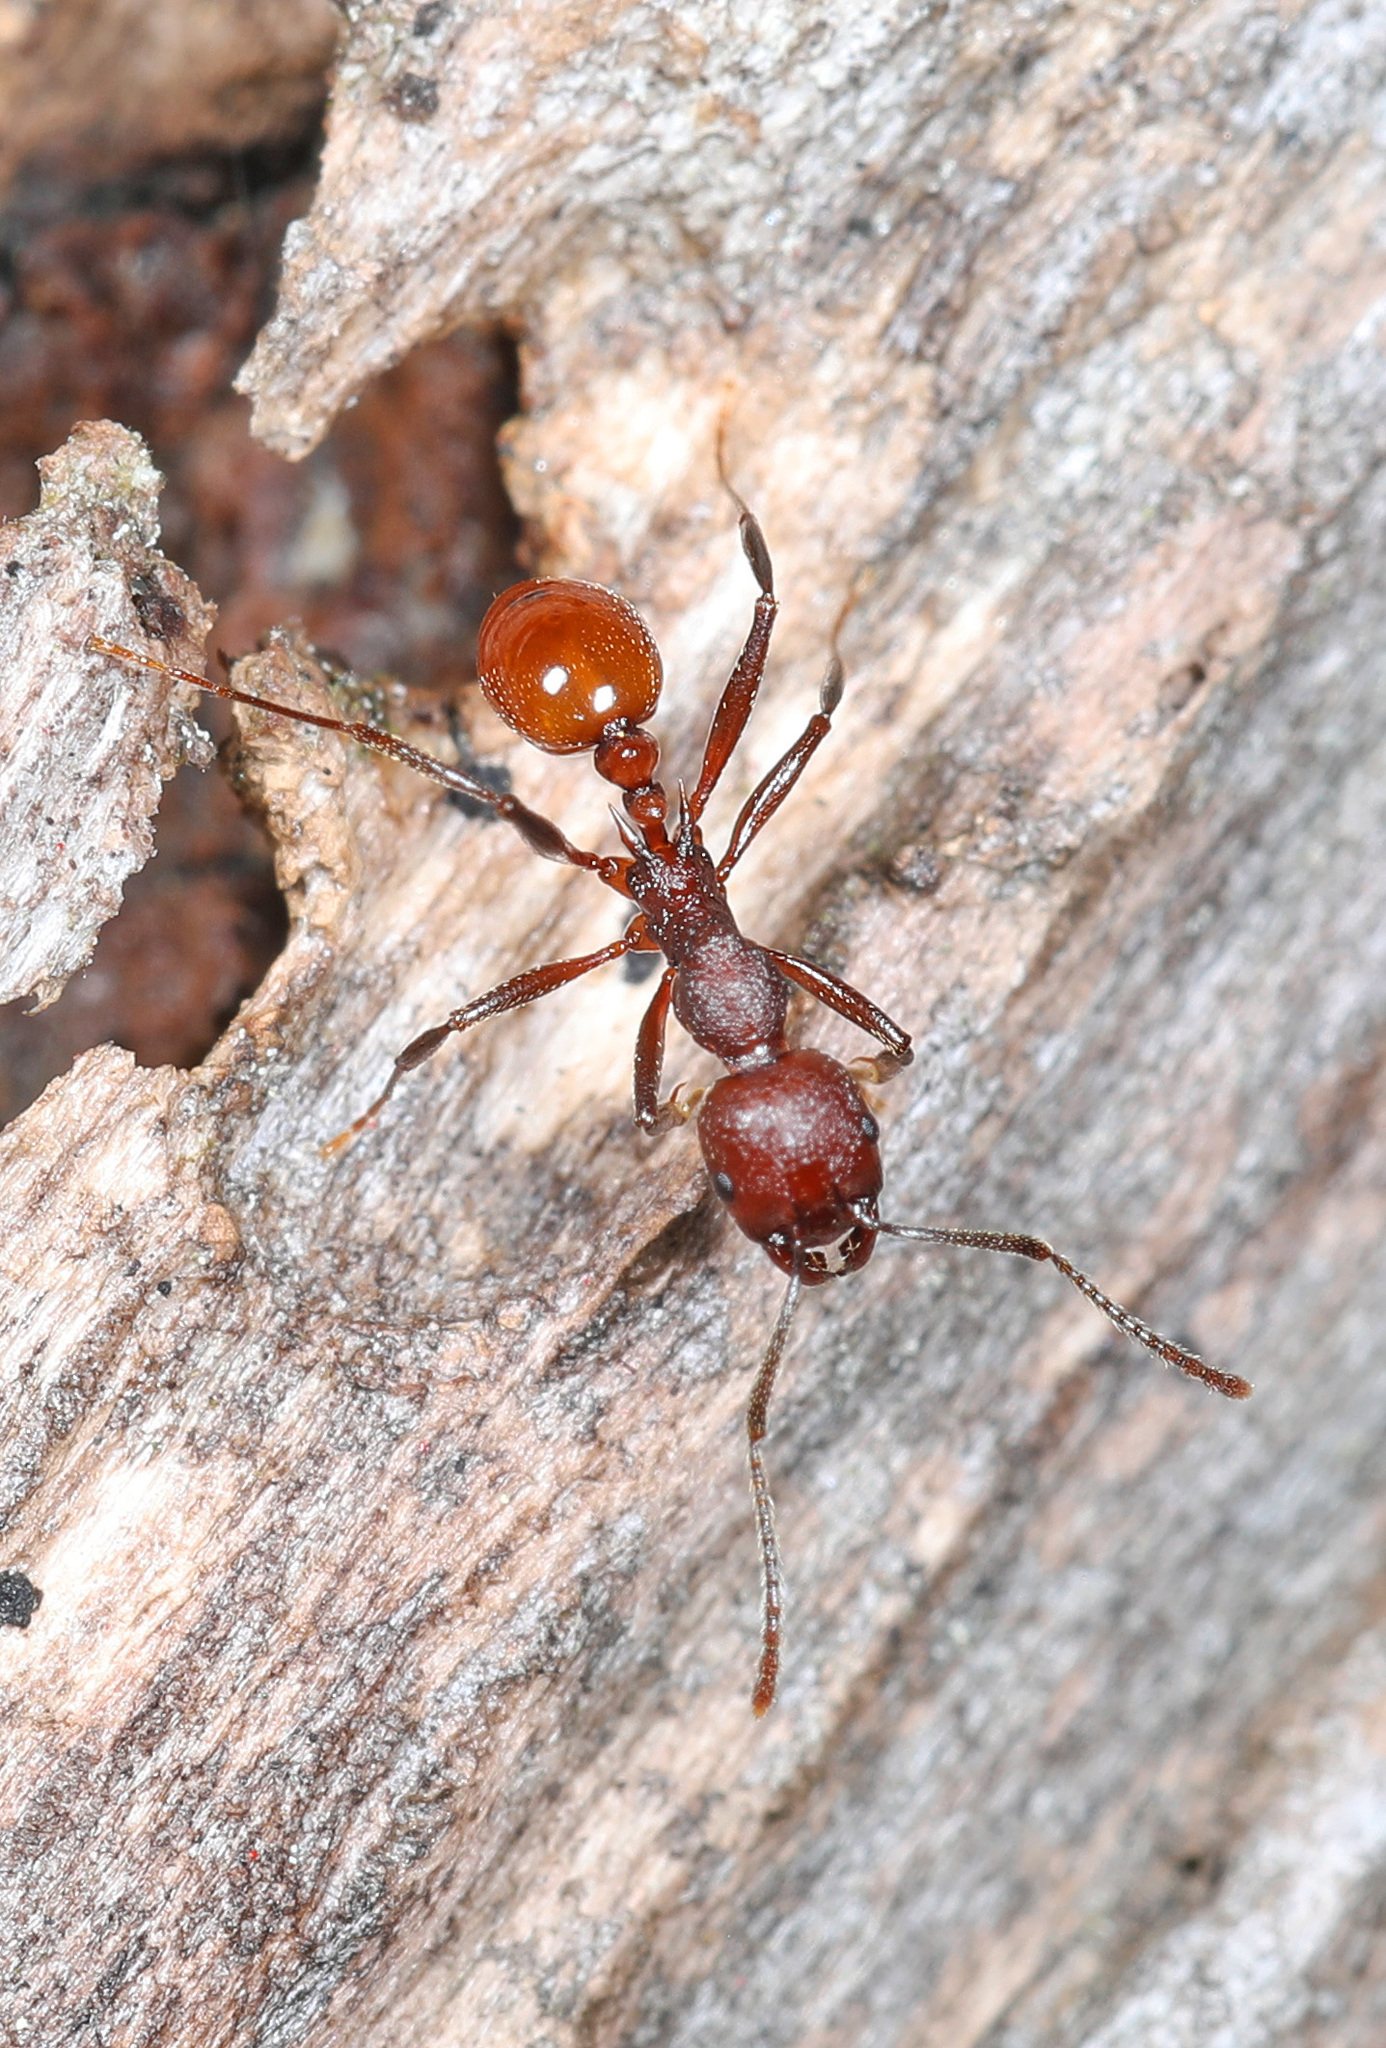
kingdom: Animalia
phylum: Arthropoda
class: Insecta
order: Hymenoptera
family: Formicidae
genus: Aphaenogaster
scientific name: Aphaenogaster tennesseensis
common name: Tennessee thread-waisted ant
